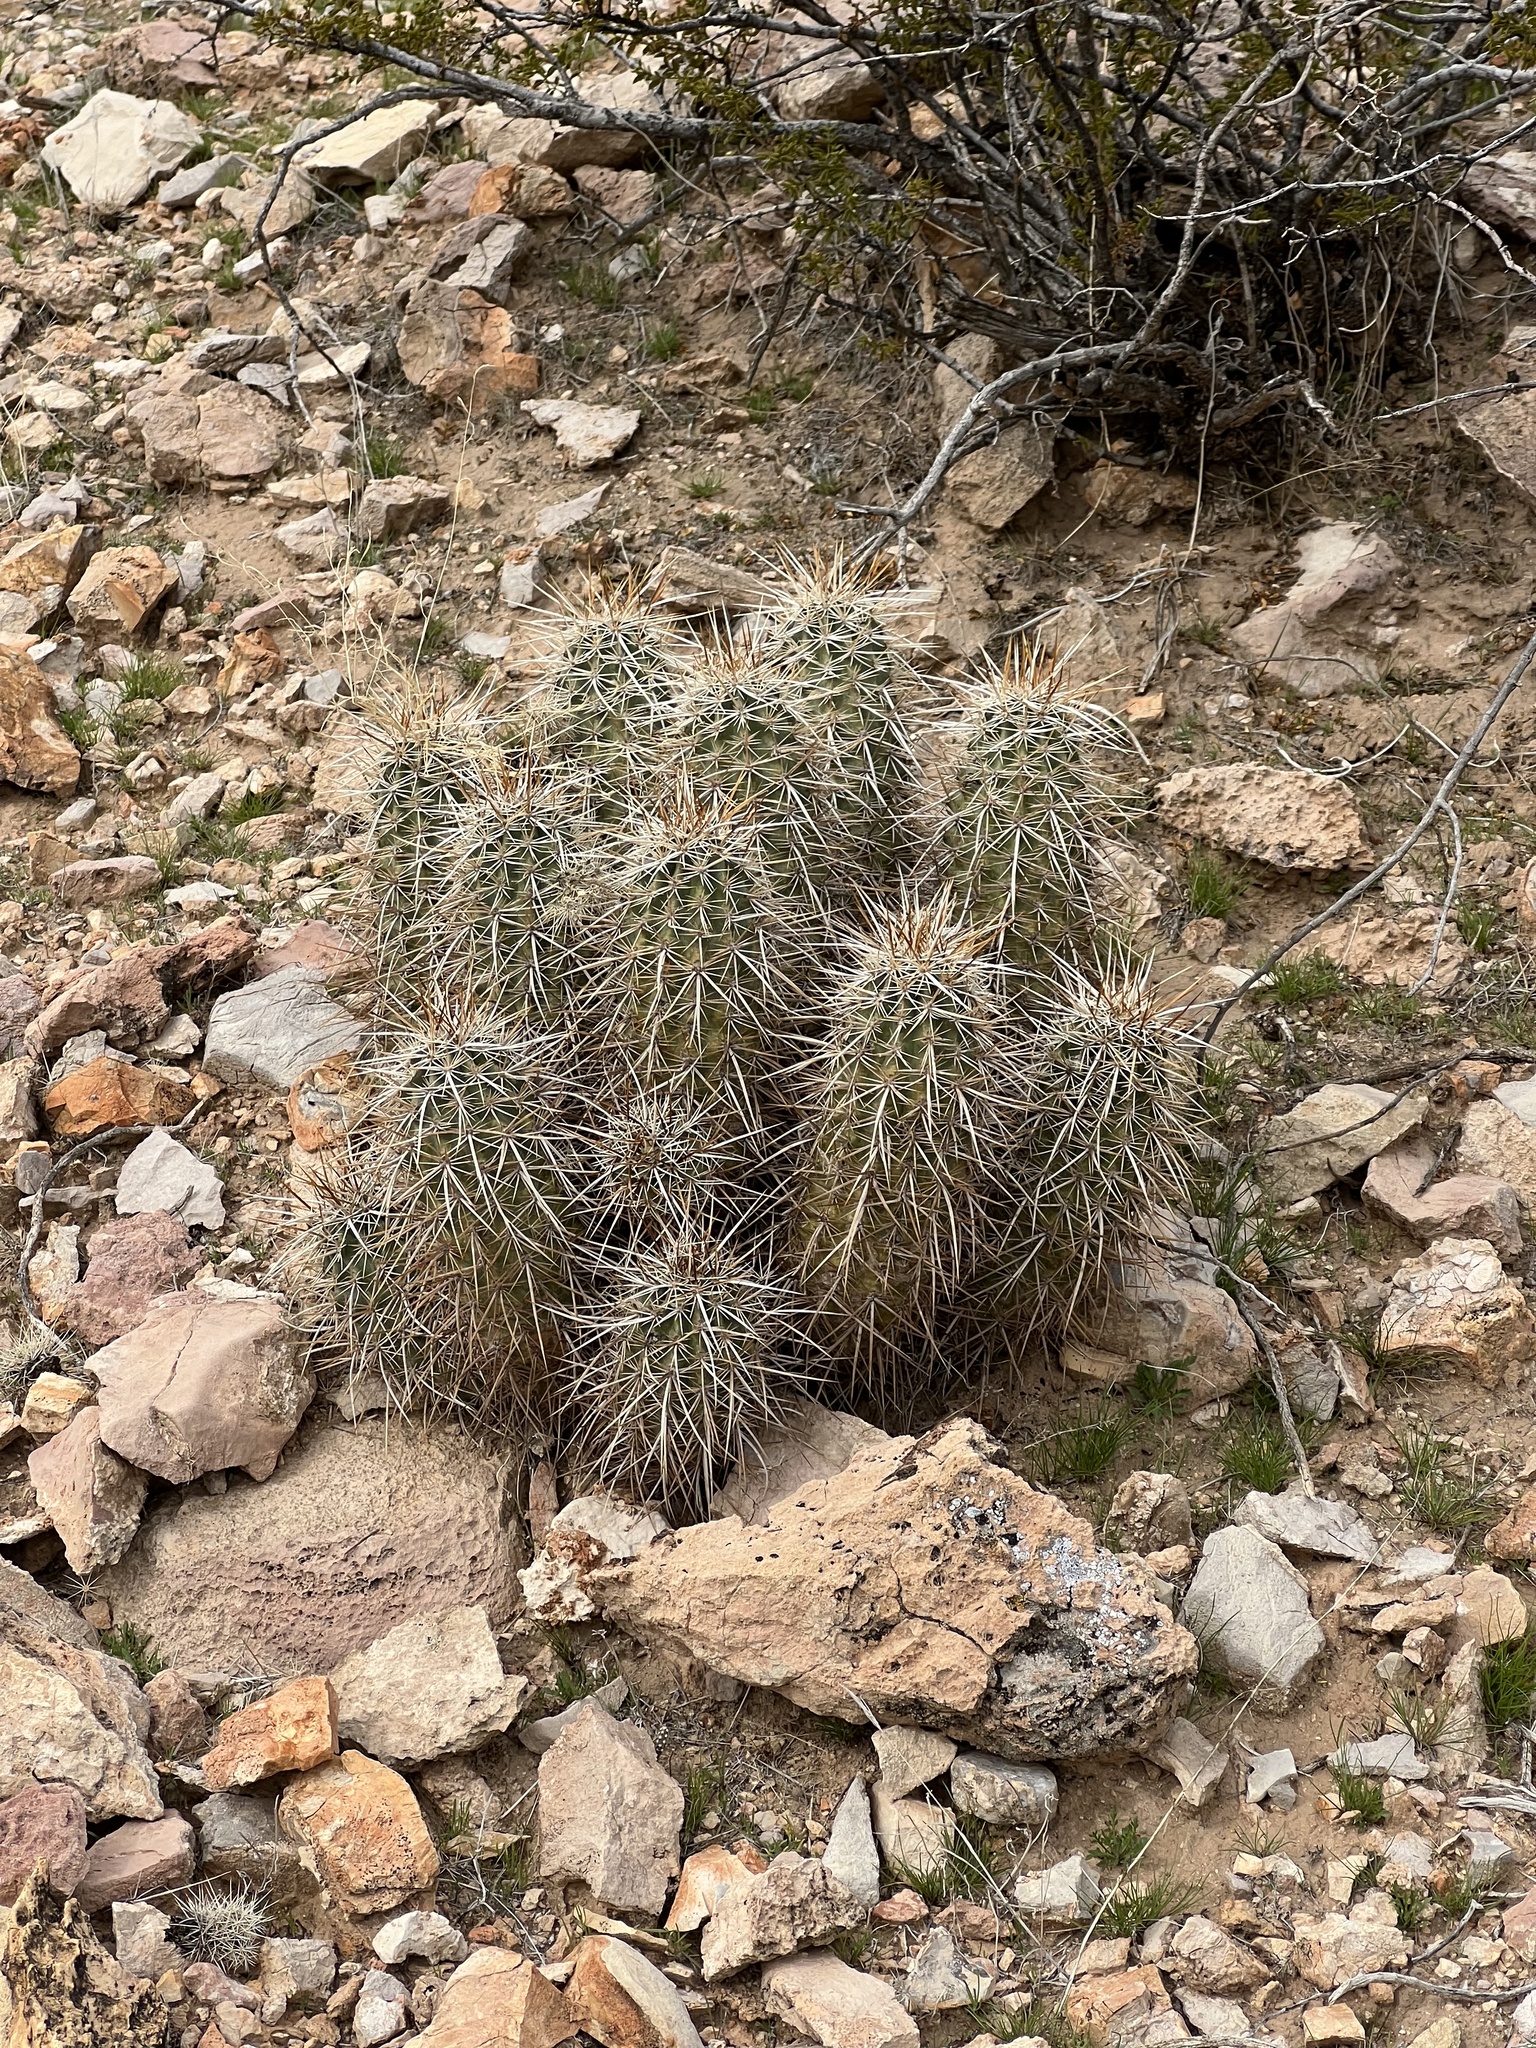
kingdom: Plantae
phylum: Tracheophyta
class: Magnoliopsida
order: Caryophyllales
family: Cactaceae
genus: Echinocereus
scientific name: Echinocereus engelmannii
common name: Engelmann's hedgehog cactus
